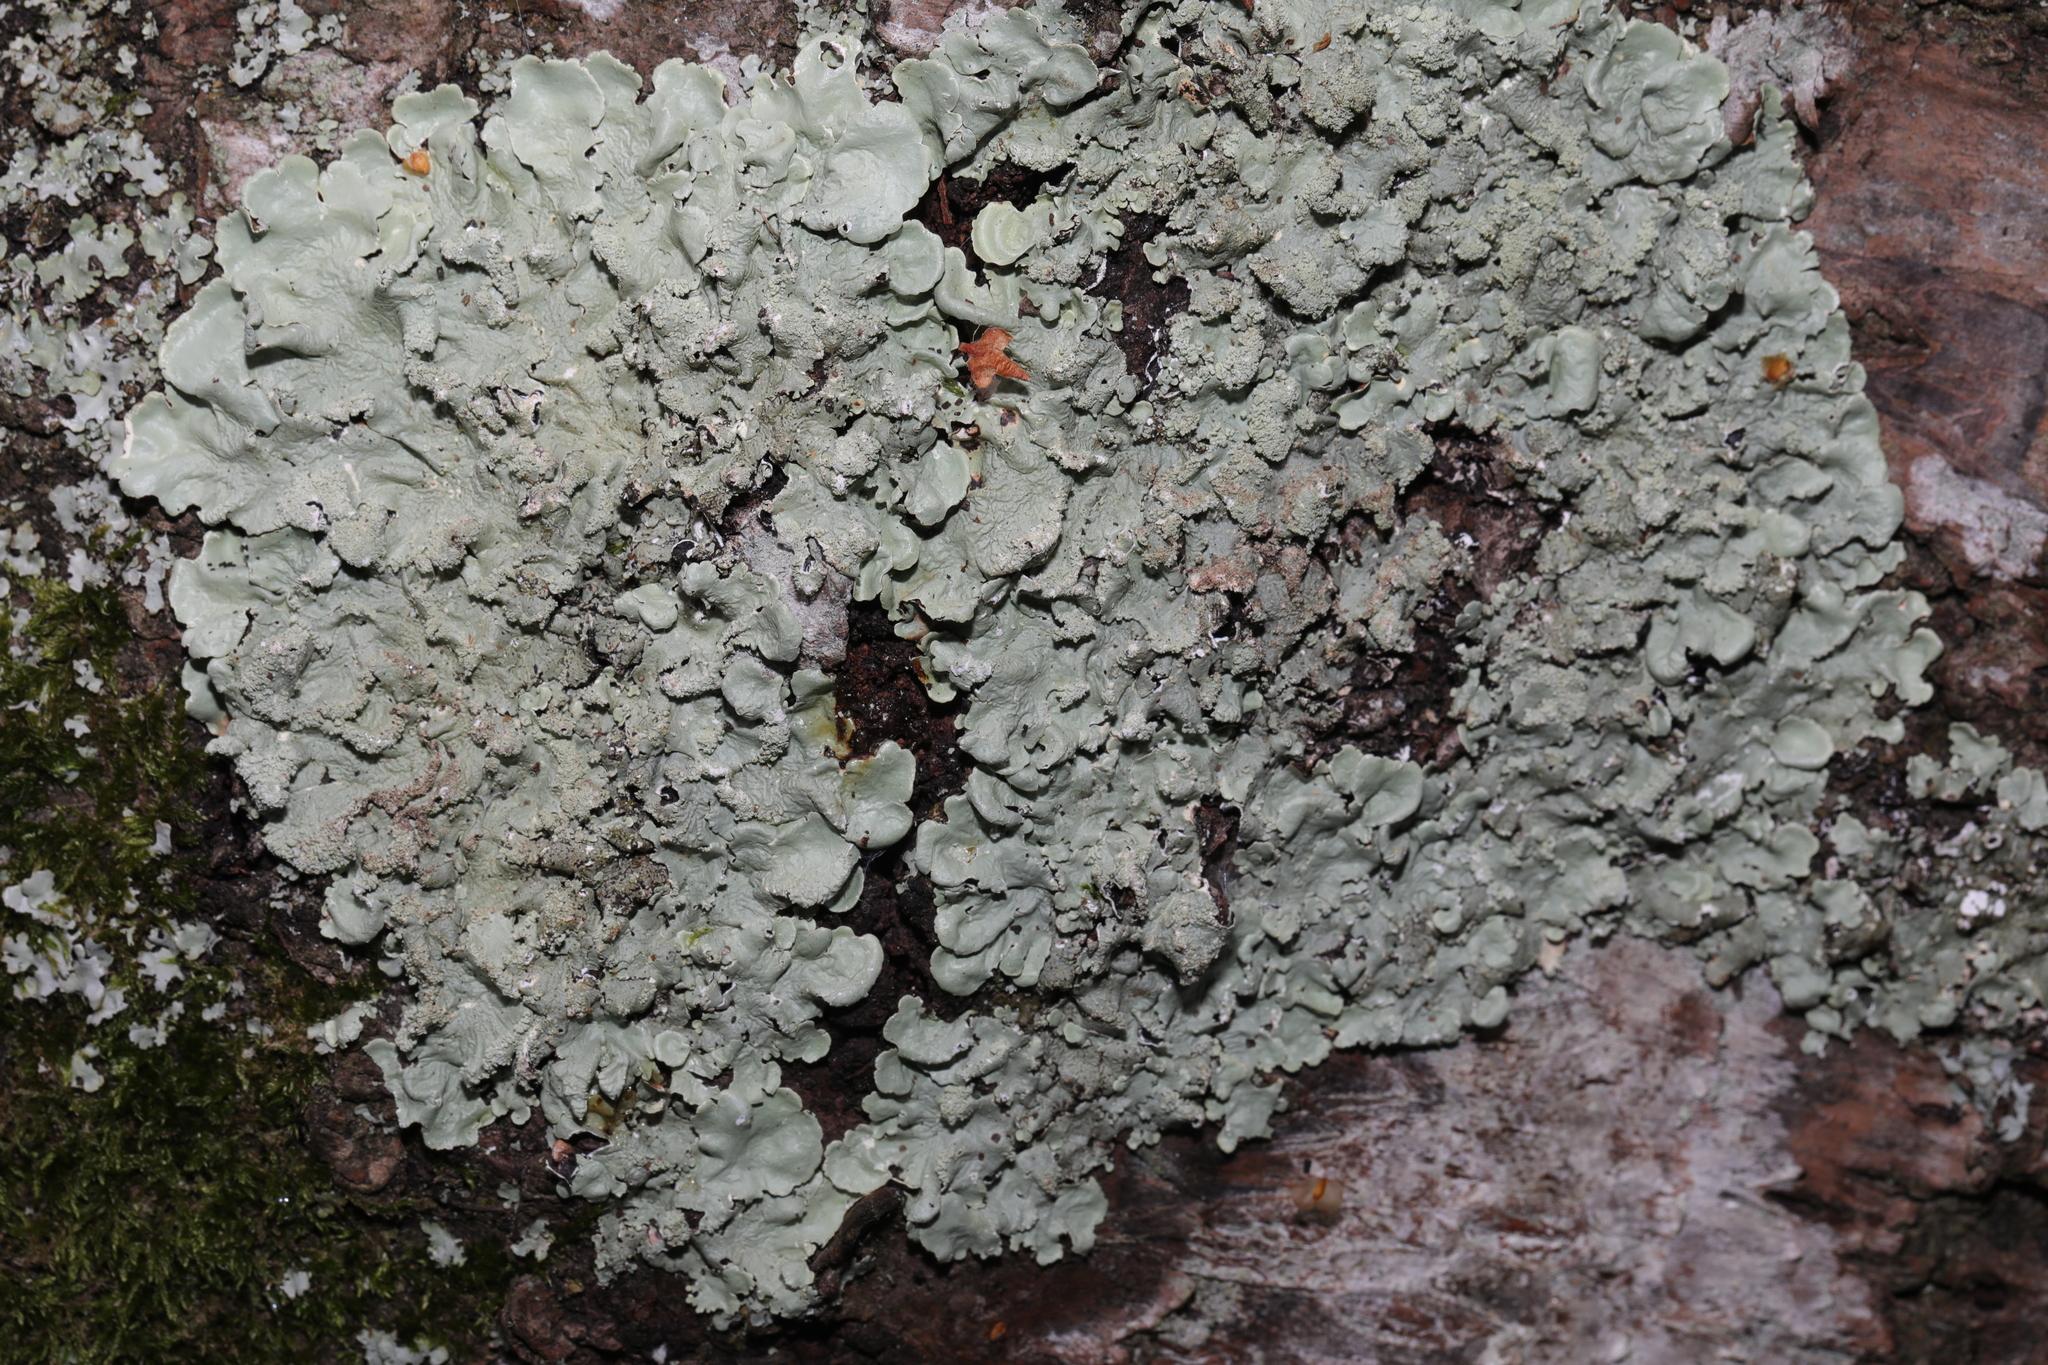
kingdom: Fungi
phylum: Ascomycota
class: Lecanoromycetes
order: Lecanorales
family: Parmeliaceae
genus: Flavoparmelia
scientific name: Flavoparmelia caperata
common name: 40-mile per hour lichen
